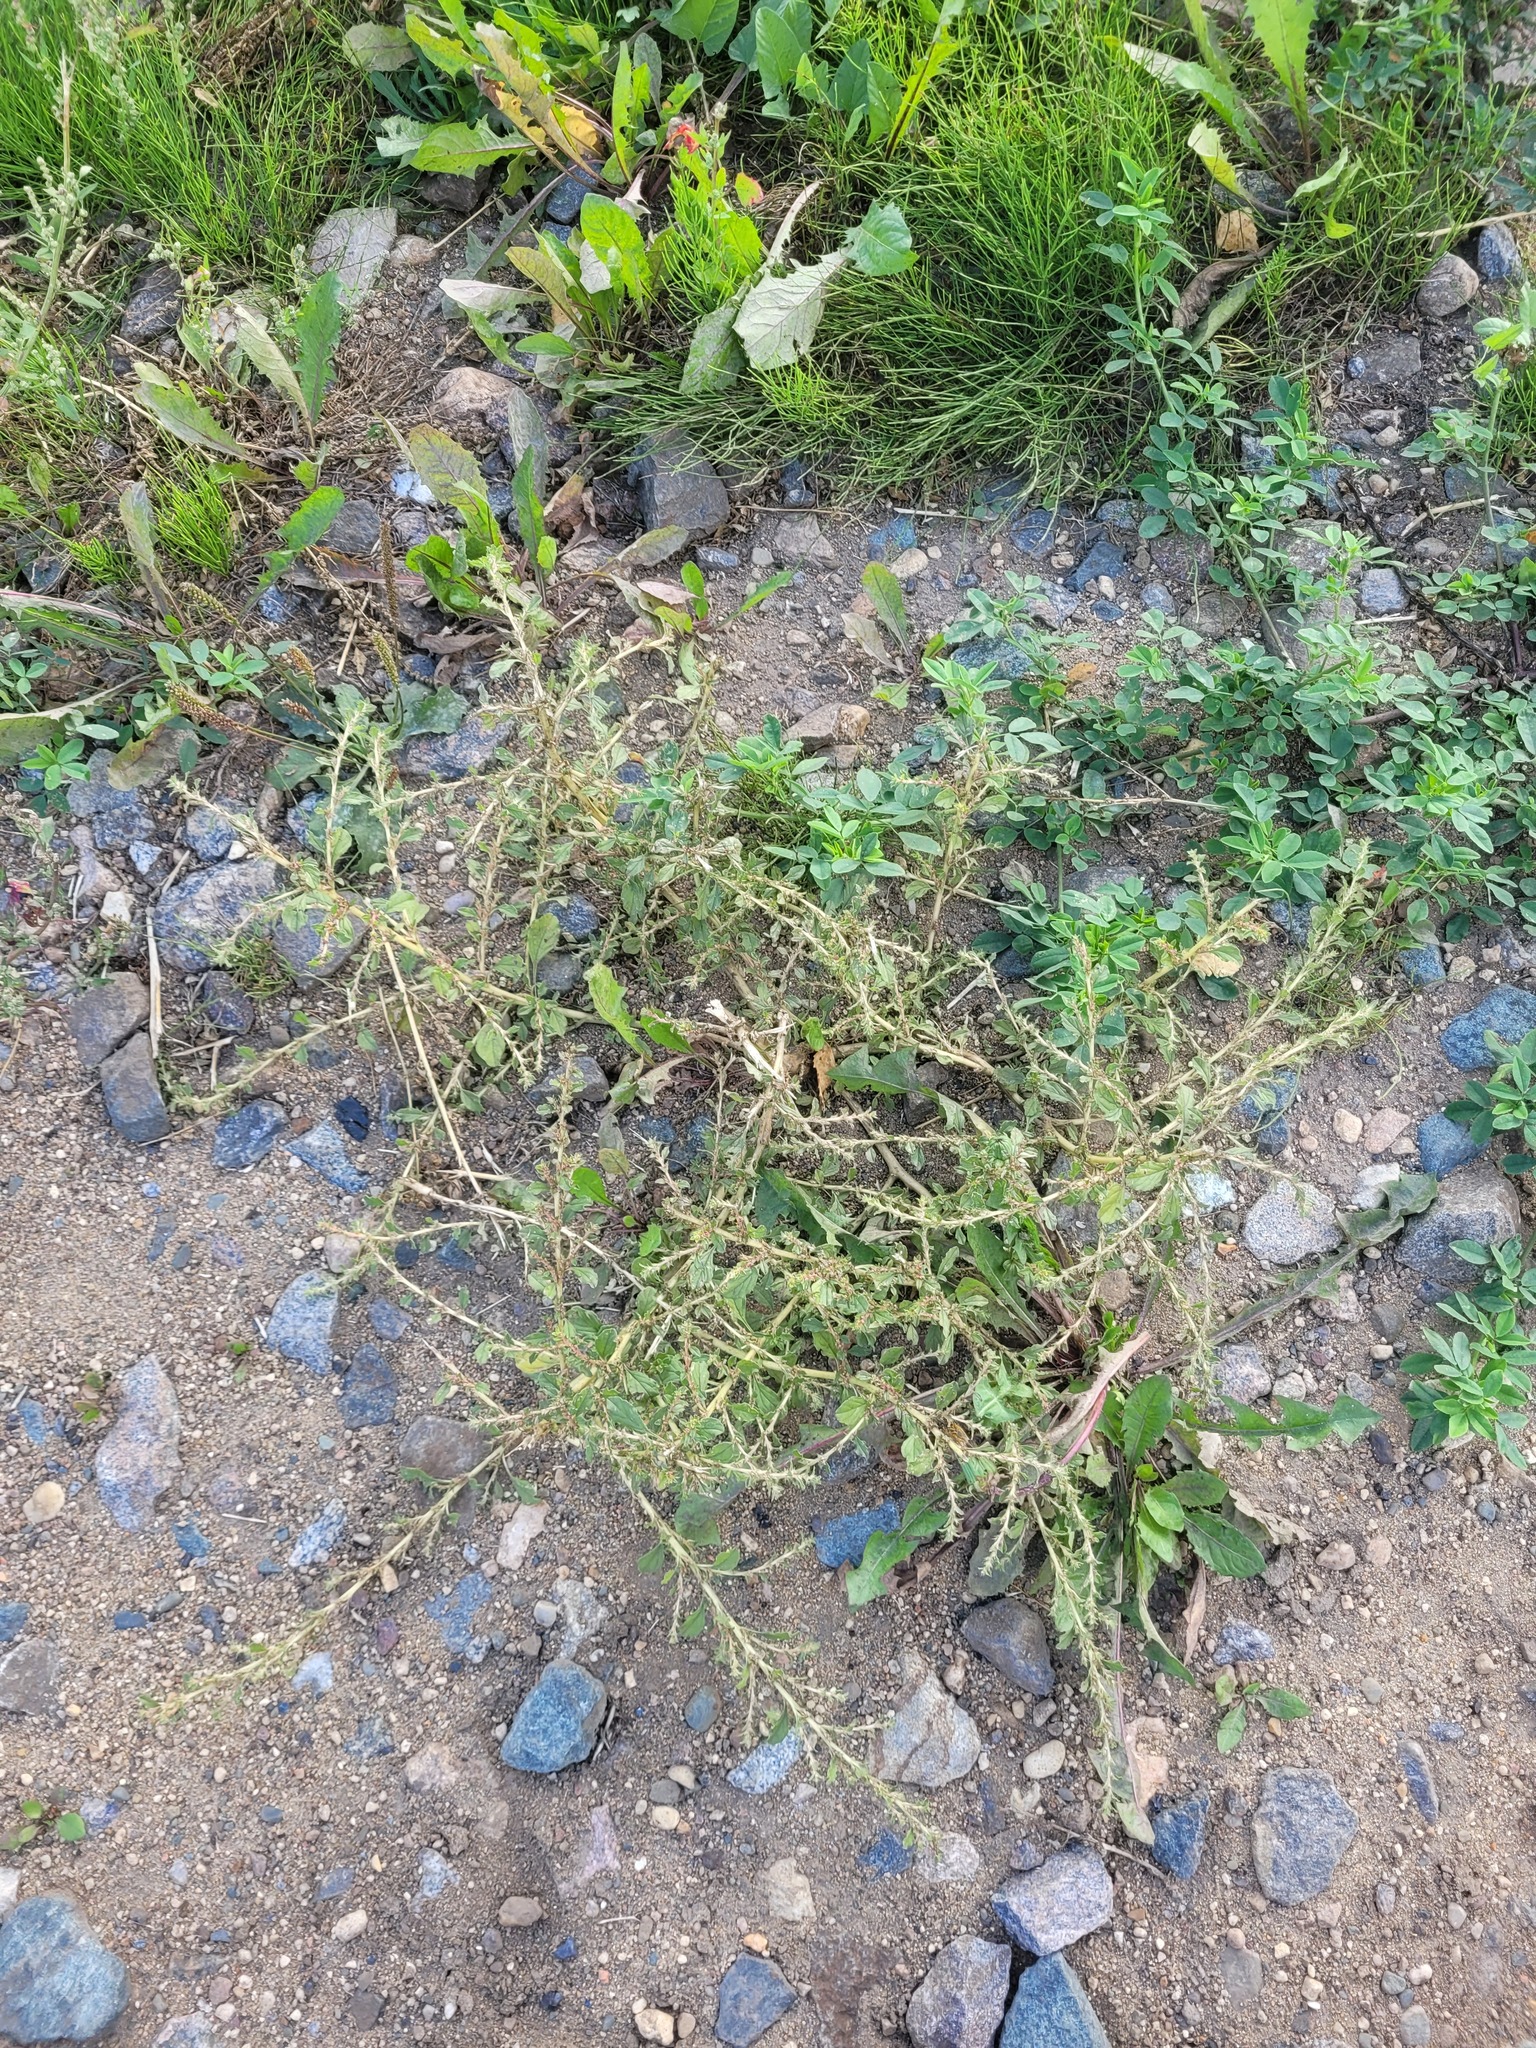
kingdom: Plantae
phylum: Tracheophyta
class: Magnoliopsida
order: Caryophyllales
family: Amaranthaceae
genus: Amaranthus
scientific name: Amaranthus albus
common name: White pigweed
